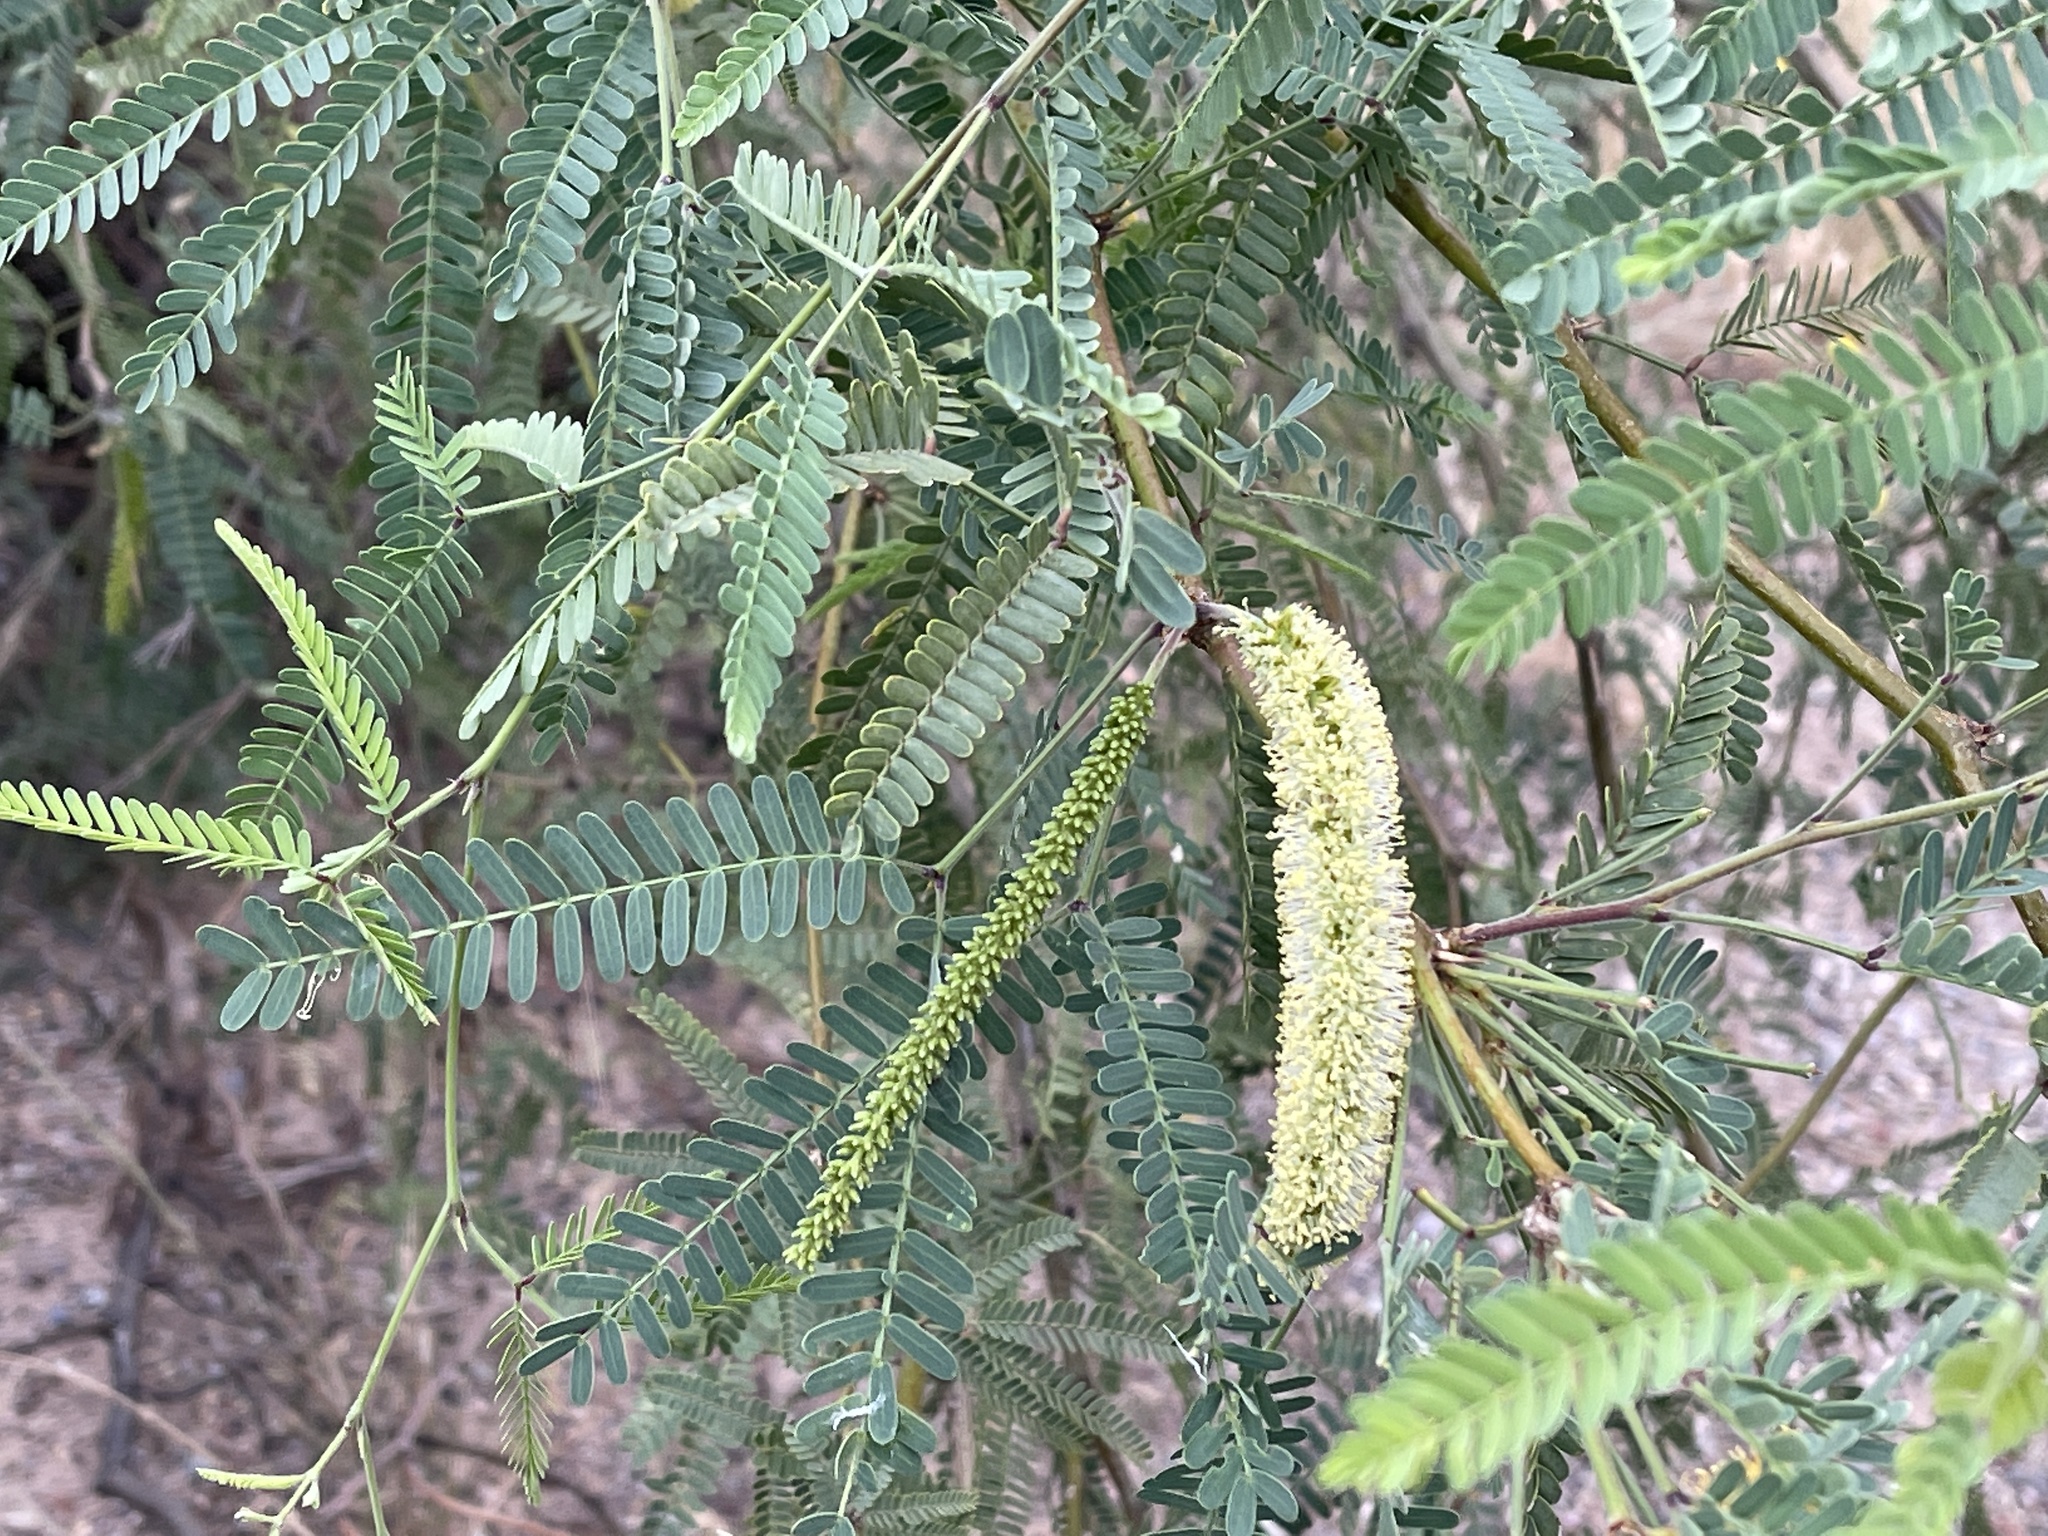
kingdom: Plantae
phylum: Tracheophyta
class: Magnoliopsida
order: Fabales
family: Fabaceae
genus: Prosopis
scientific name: Prosopis velutina
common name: Velvet mesquite
